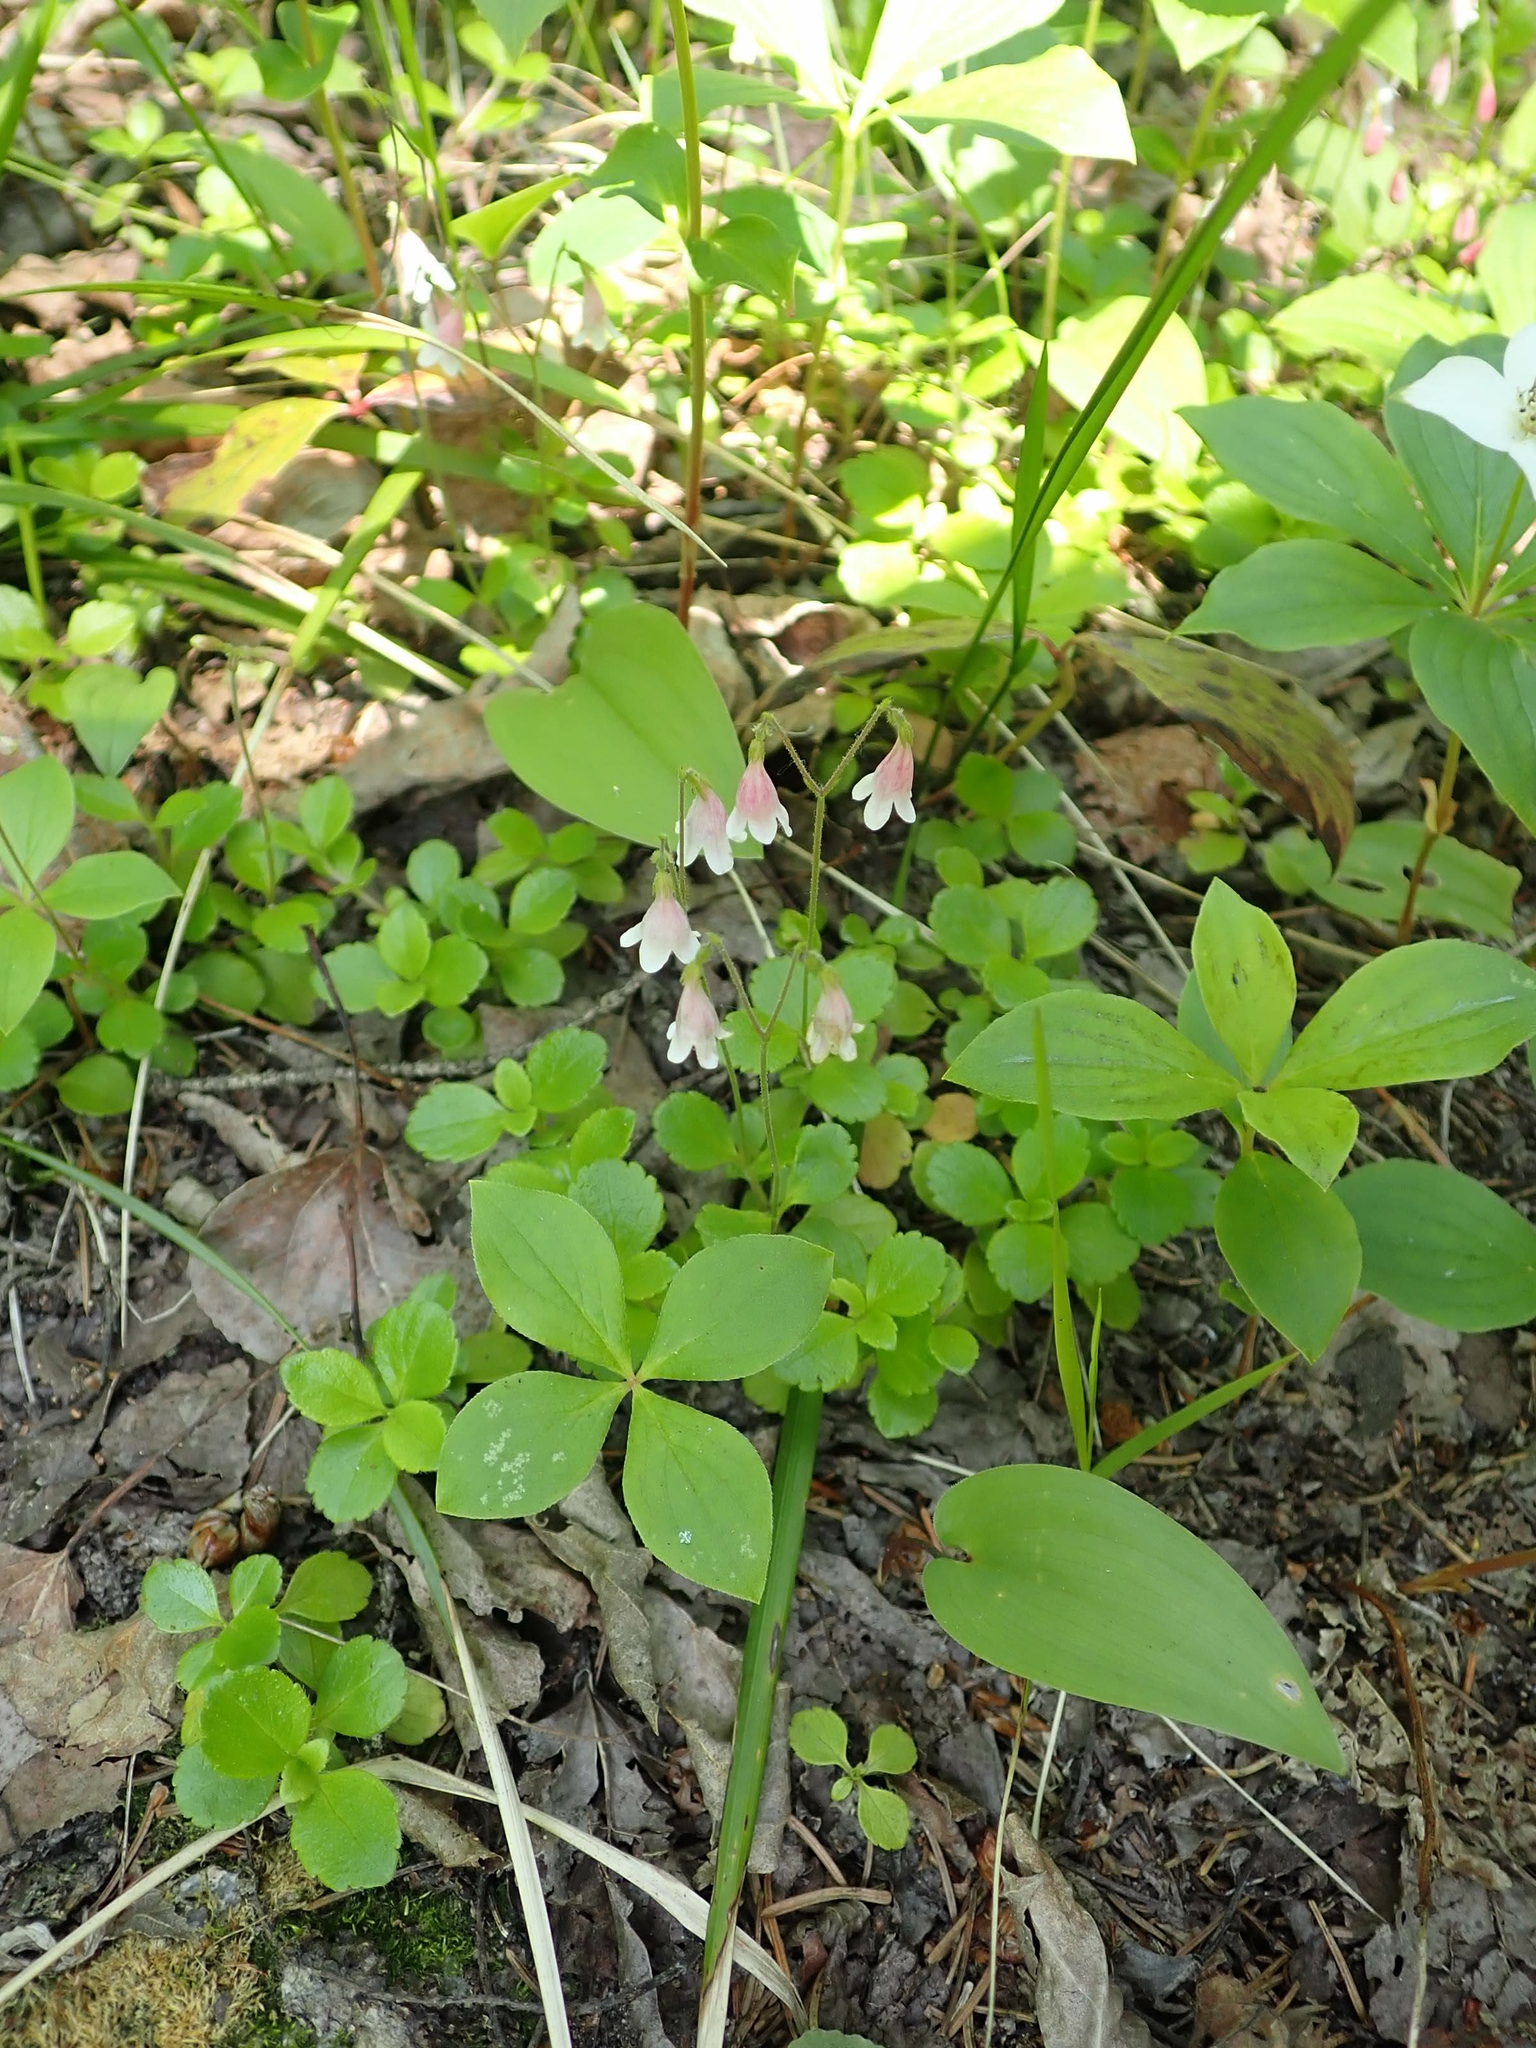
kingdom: Plantae
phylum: Tracheophyta
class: Magnoliopsida
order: Dipsacales
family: Caprifoliaceae
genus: Linnaea
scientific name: Linnaea borealis
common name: Twinflower
